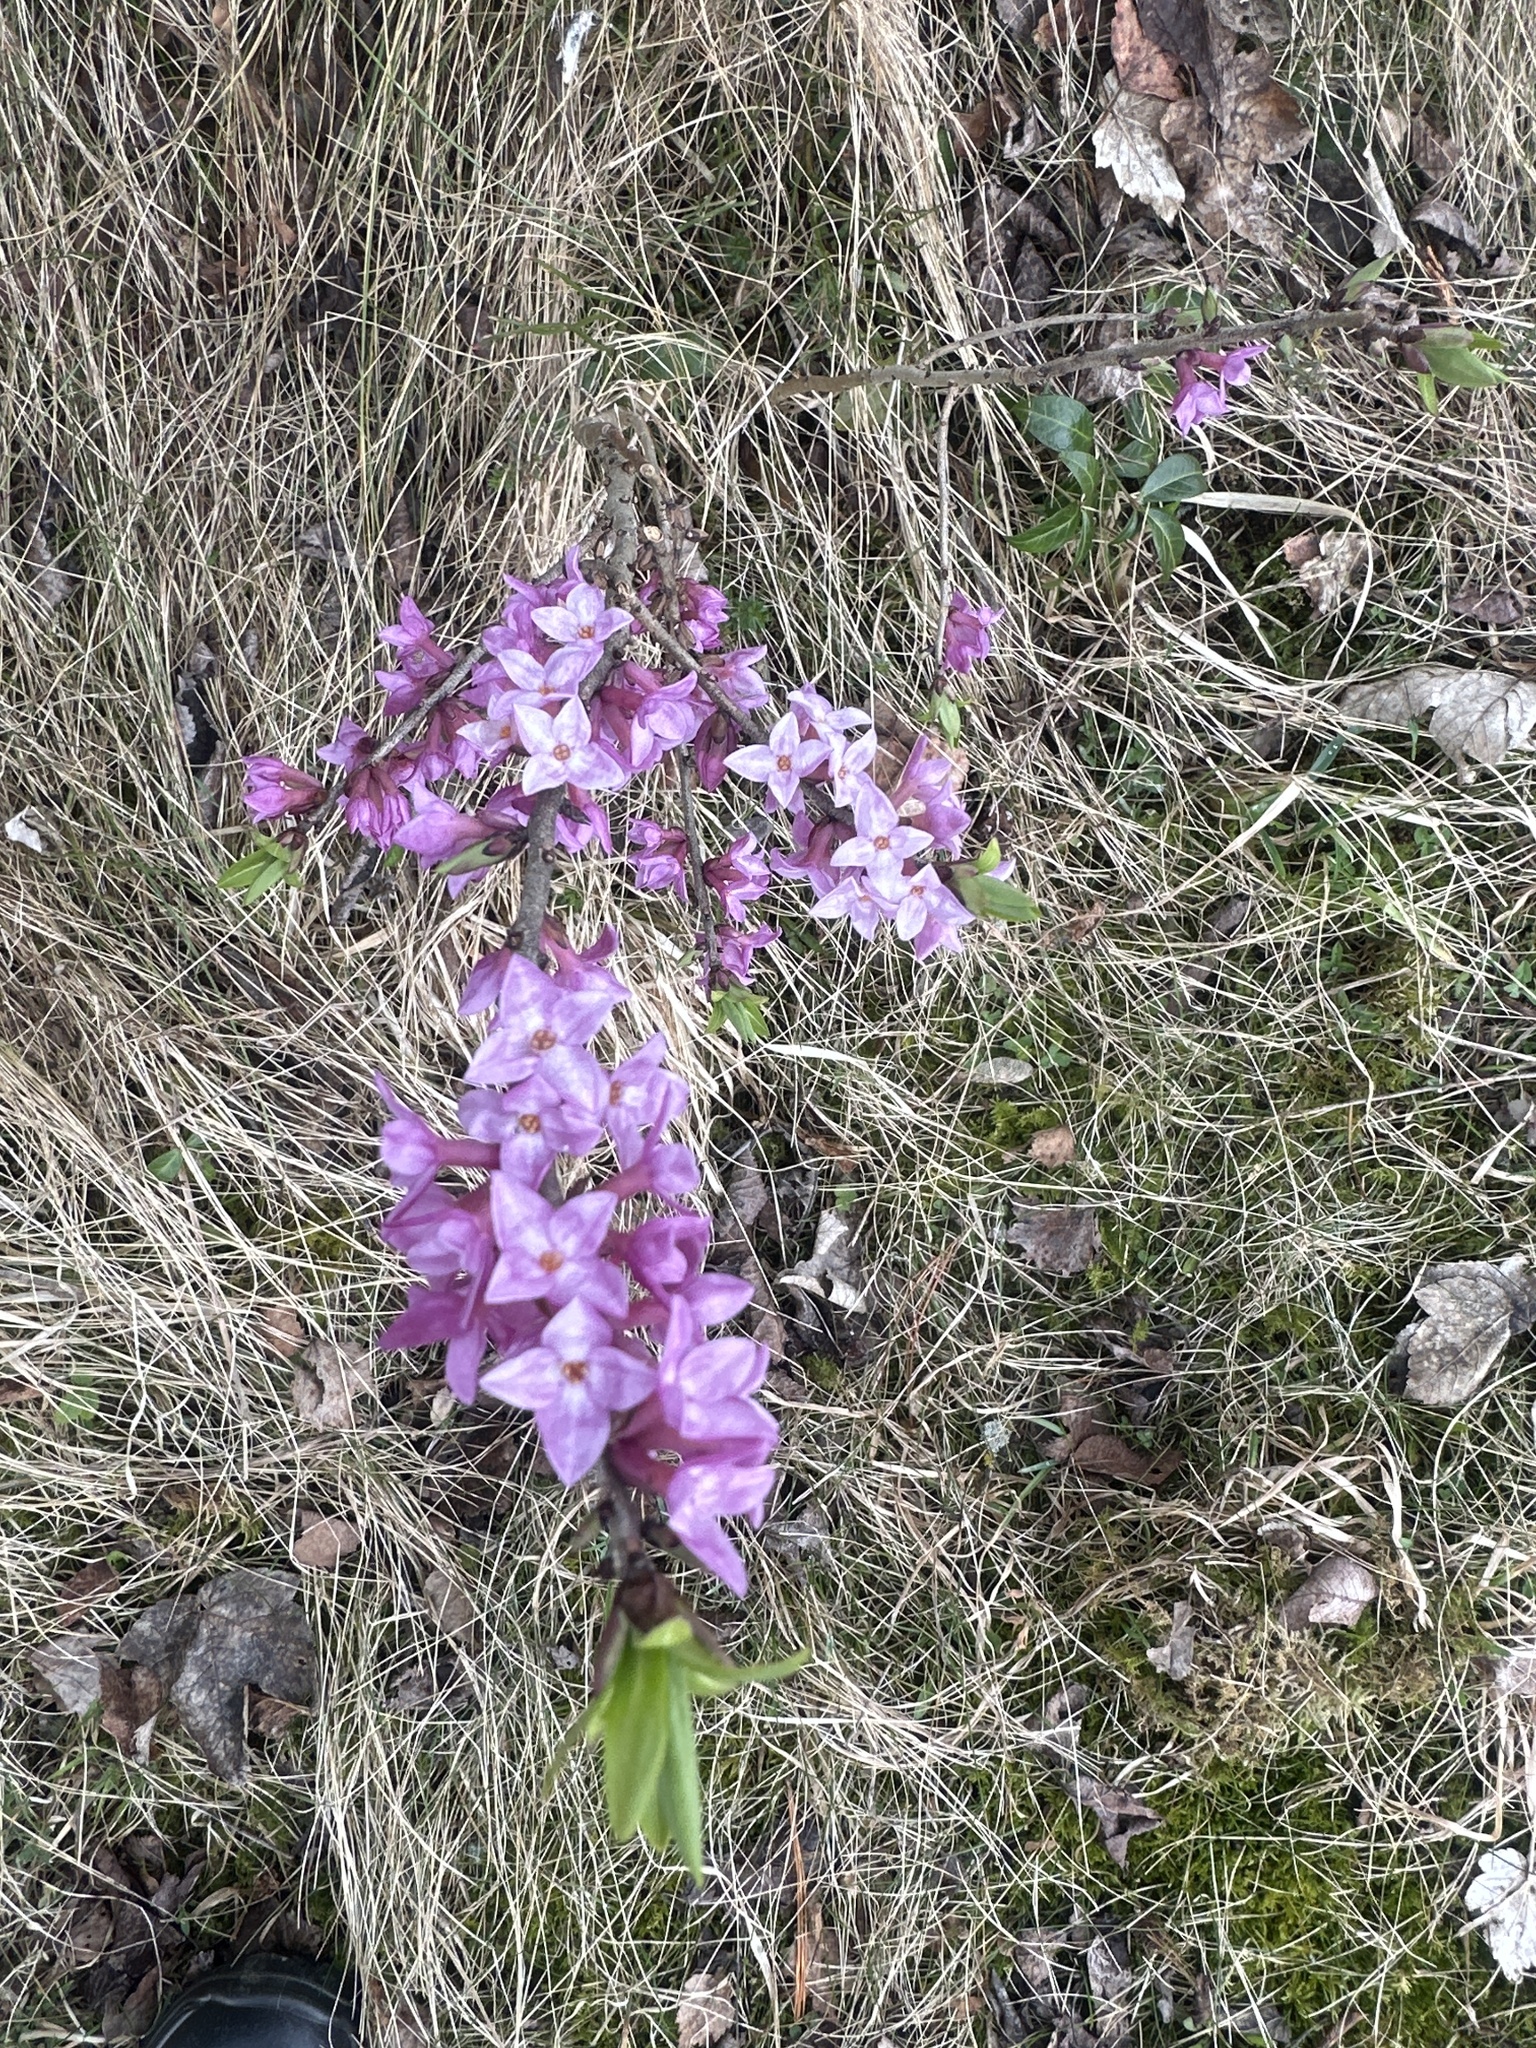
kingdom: Plantae
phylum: Tracheophyta
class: Magnoliopsida
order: Malvales
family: Thymelaeaceae
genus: Daphne
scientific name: Daphne mezereum
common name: Mezereon
